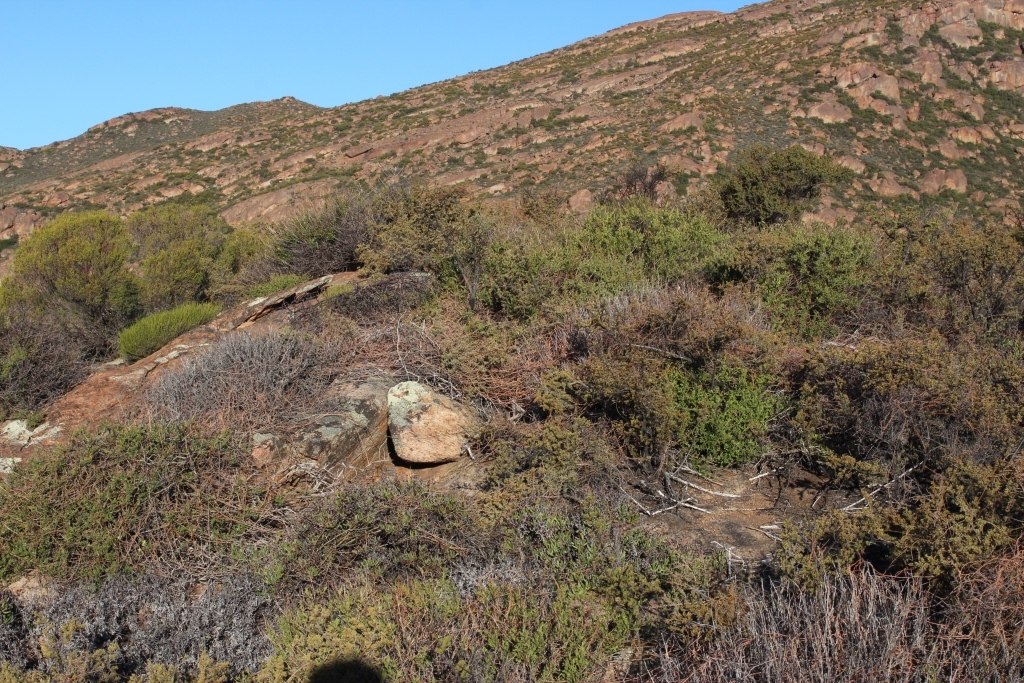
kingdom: Plantae
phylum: Tracheophyta
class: Magnoliopsida
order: Laurales
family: Lauraceae
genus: Cassytha
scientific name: Cassytha ciliolata
